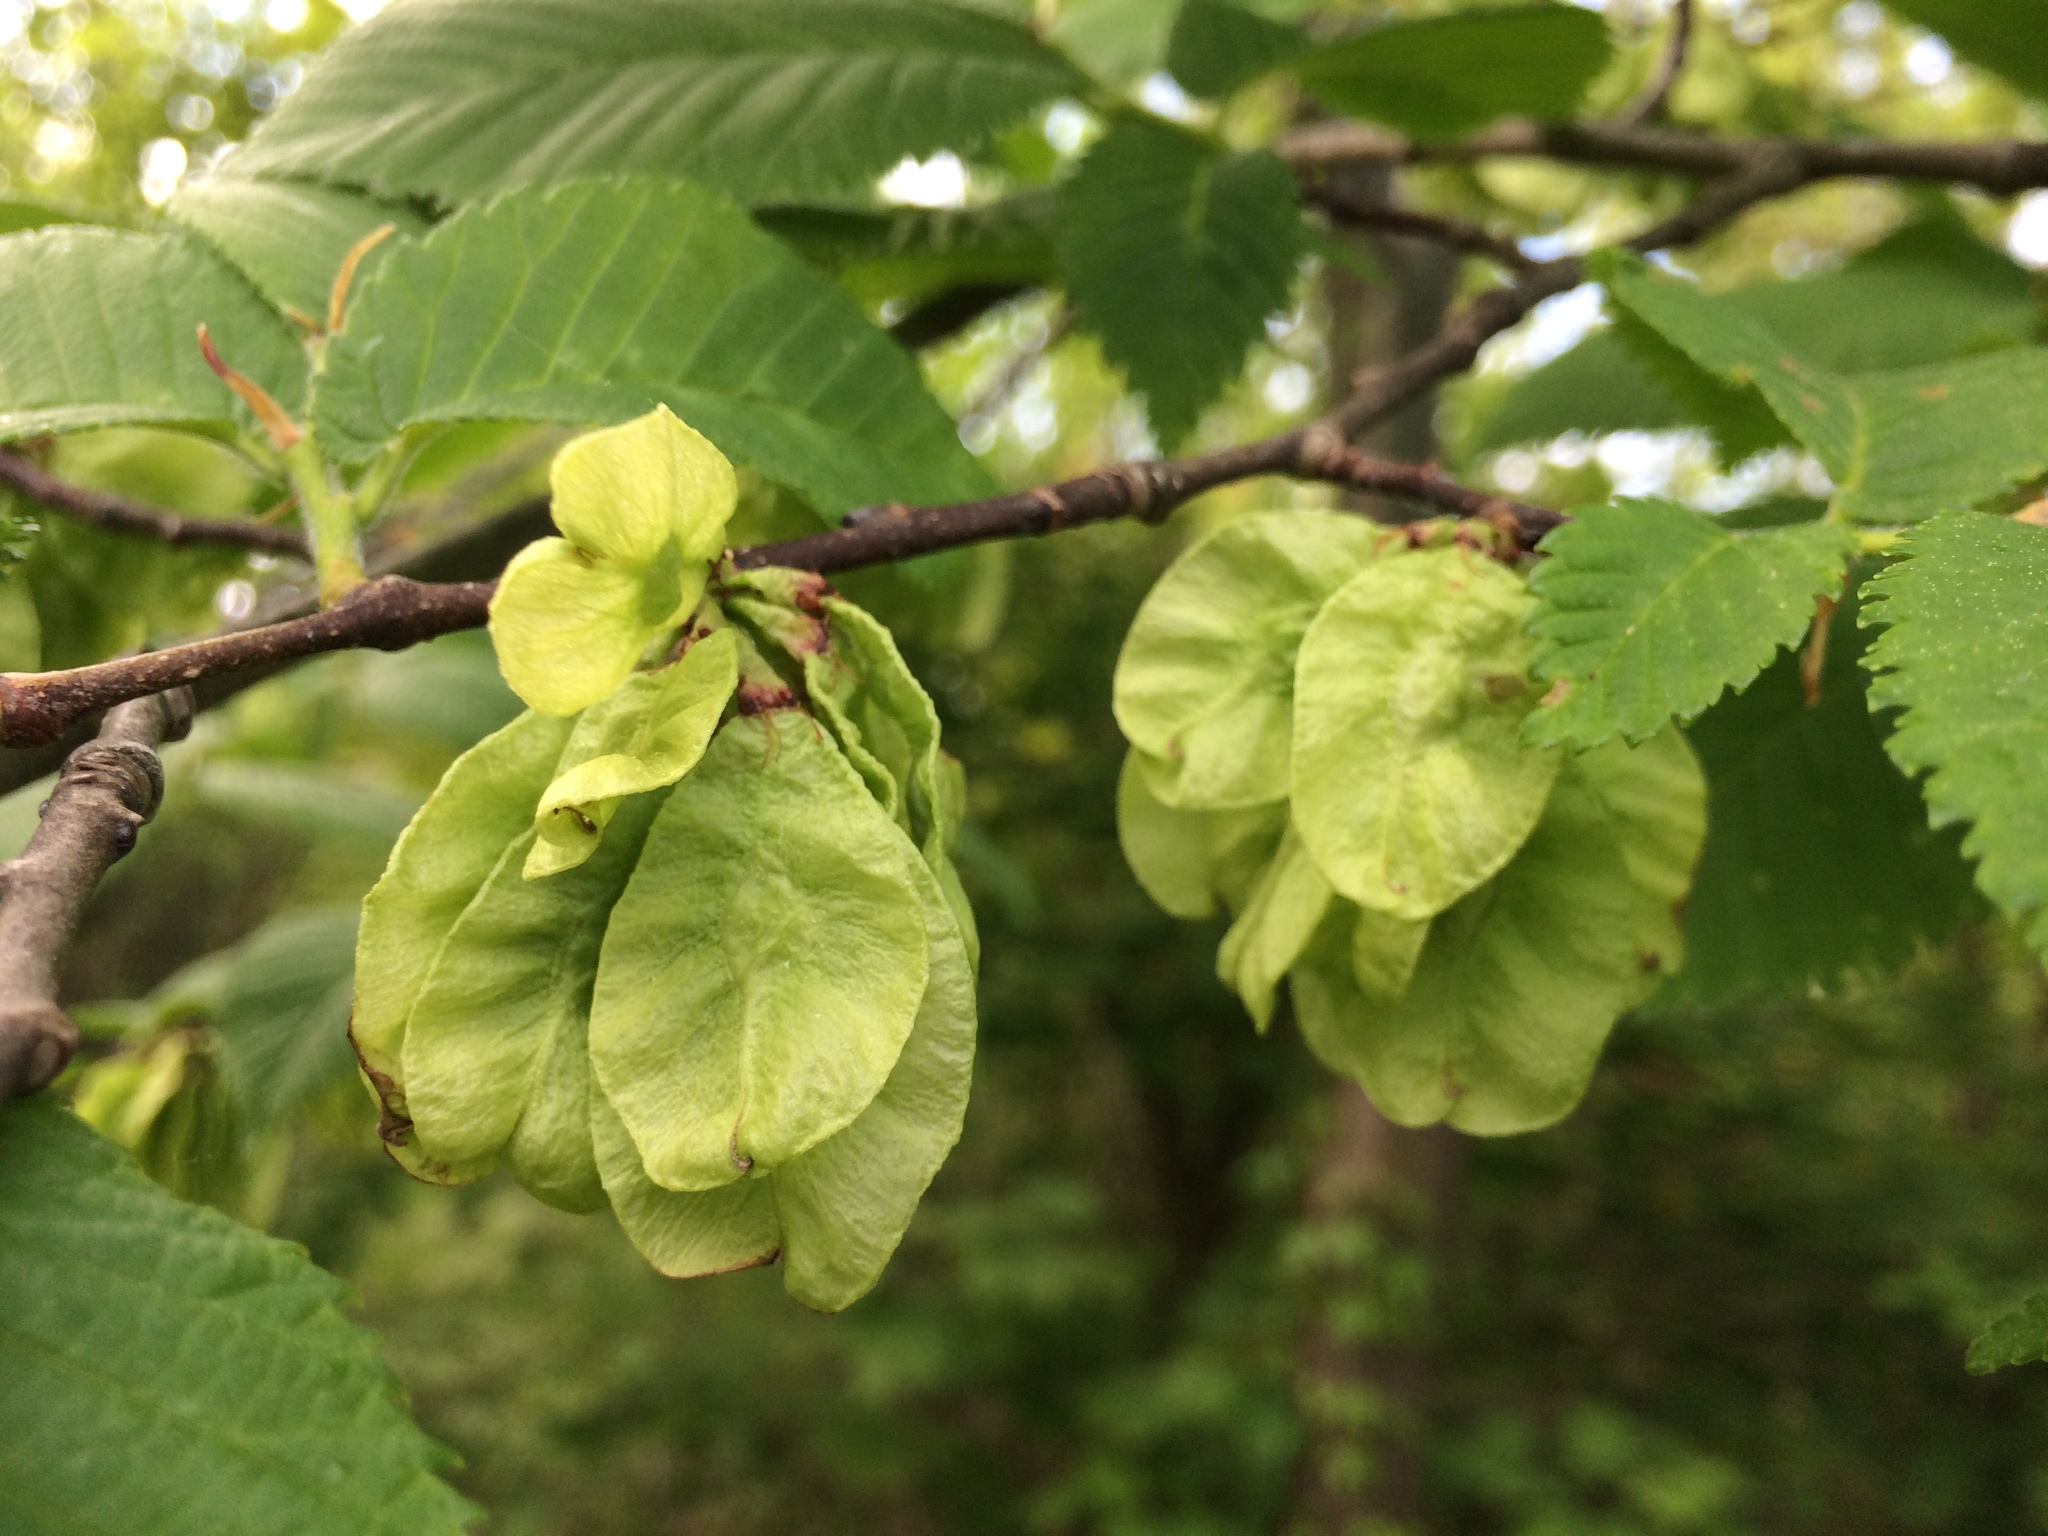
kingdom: Plantae
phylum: Tracheophyta
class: Magnoliopsida
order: Rosales
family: Ulmaceae
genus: Ulmus
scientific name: Ulmus americana
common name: American elm
